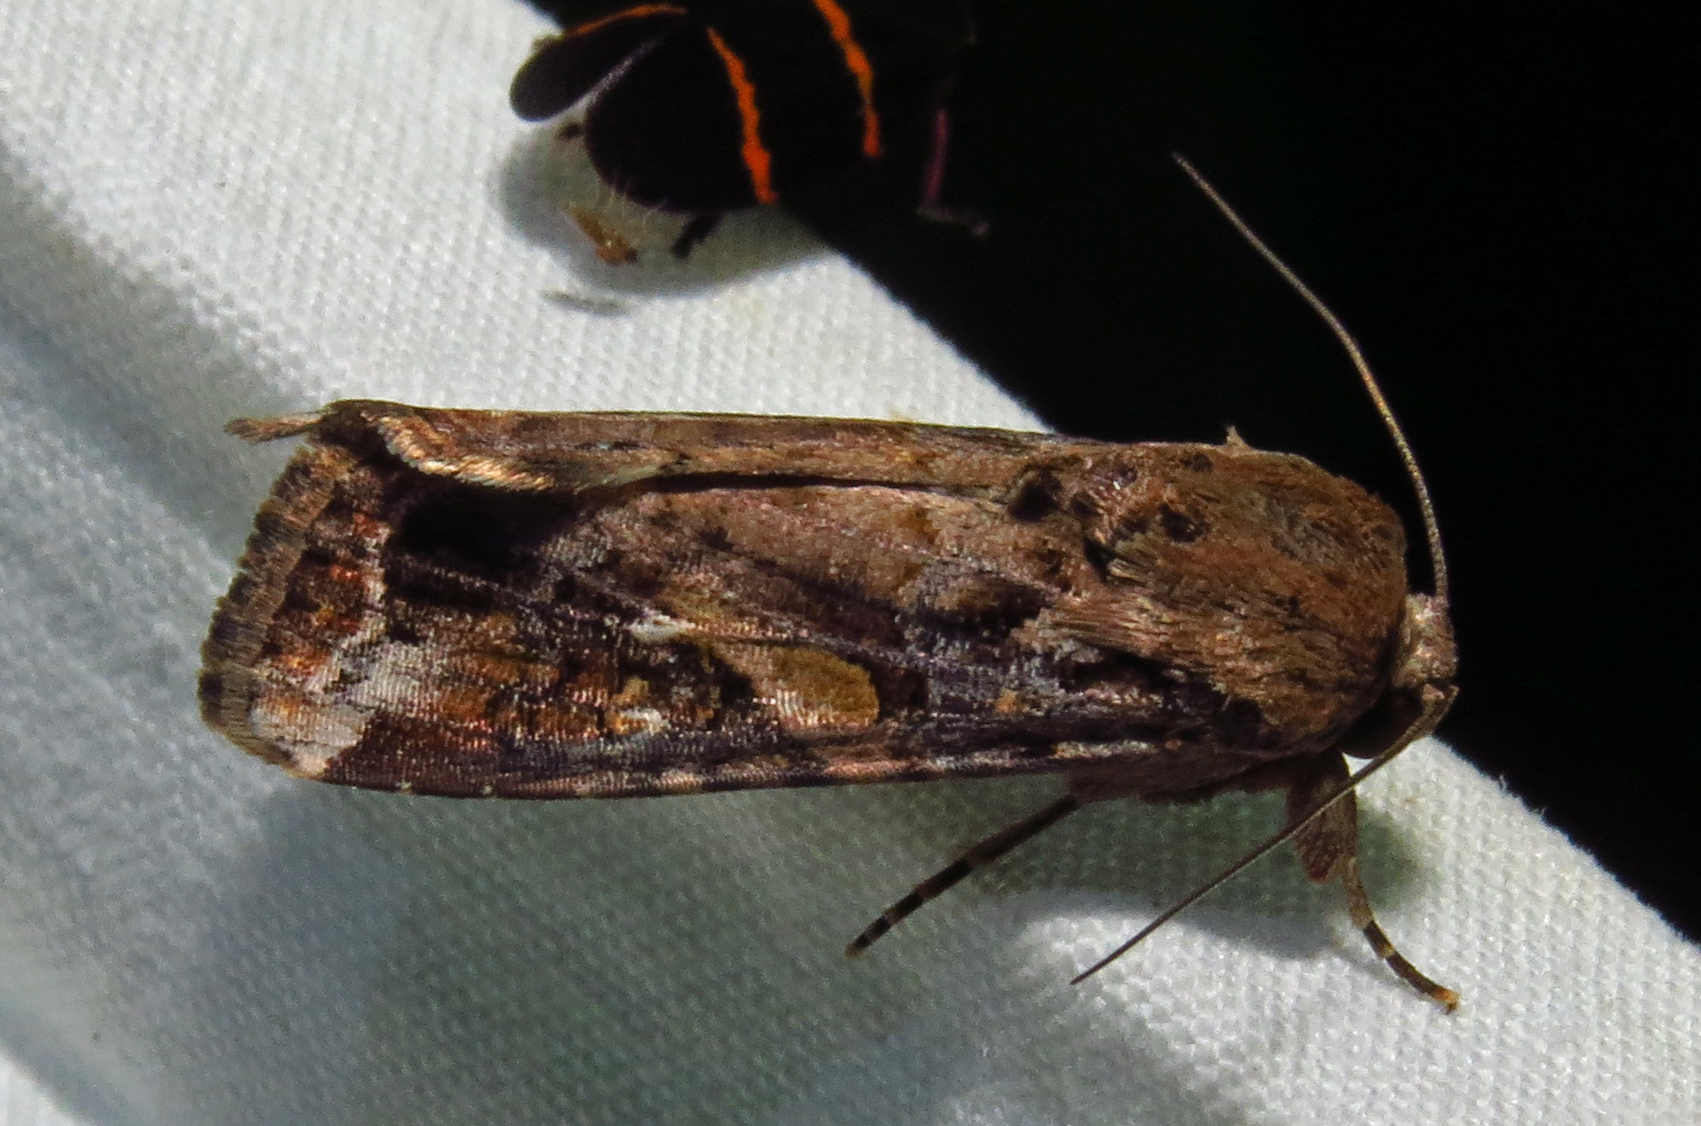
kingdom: Animalia
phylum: Arthropoda
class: Insecta
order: Lepidoptera
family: Noctuidae
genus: Spodoptera
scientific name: Spodoptera frugiperda
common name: Fall armyworm
